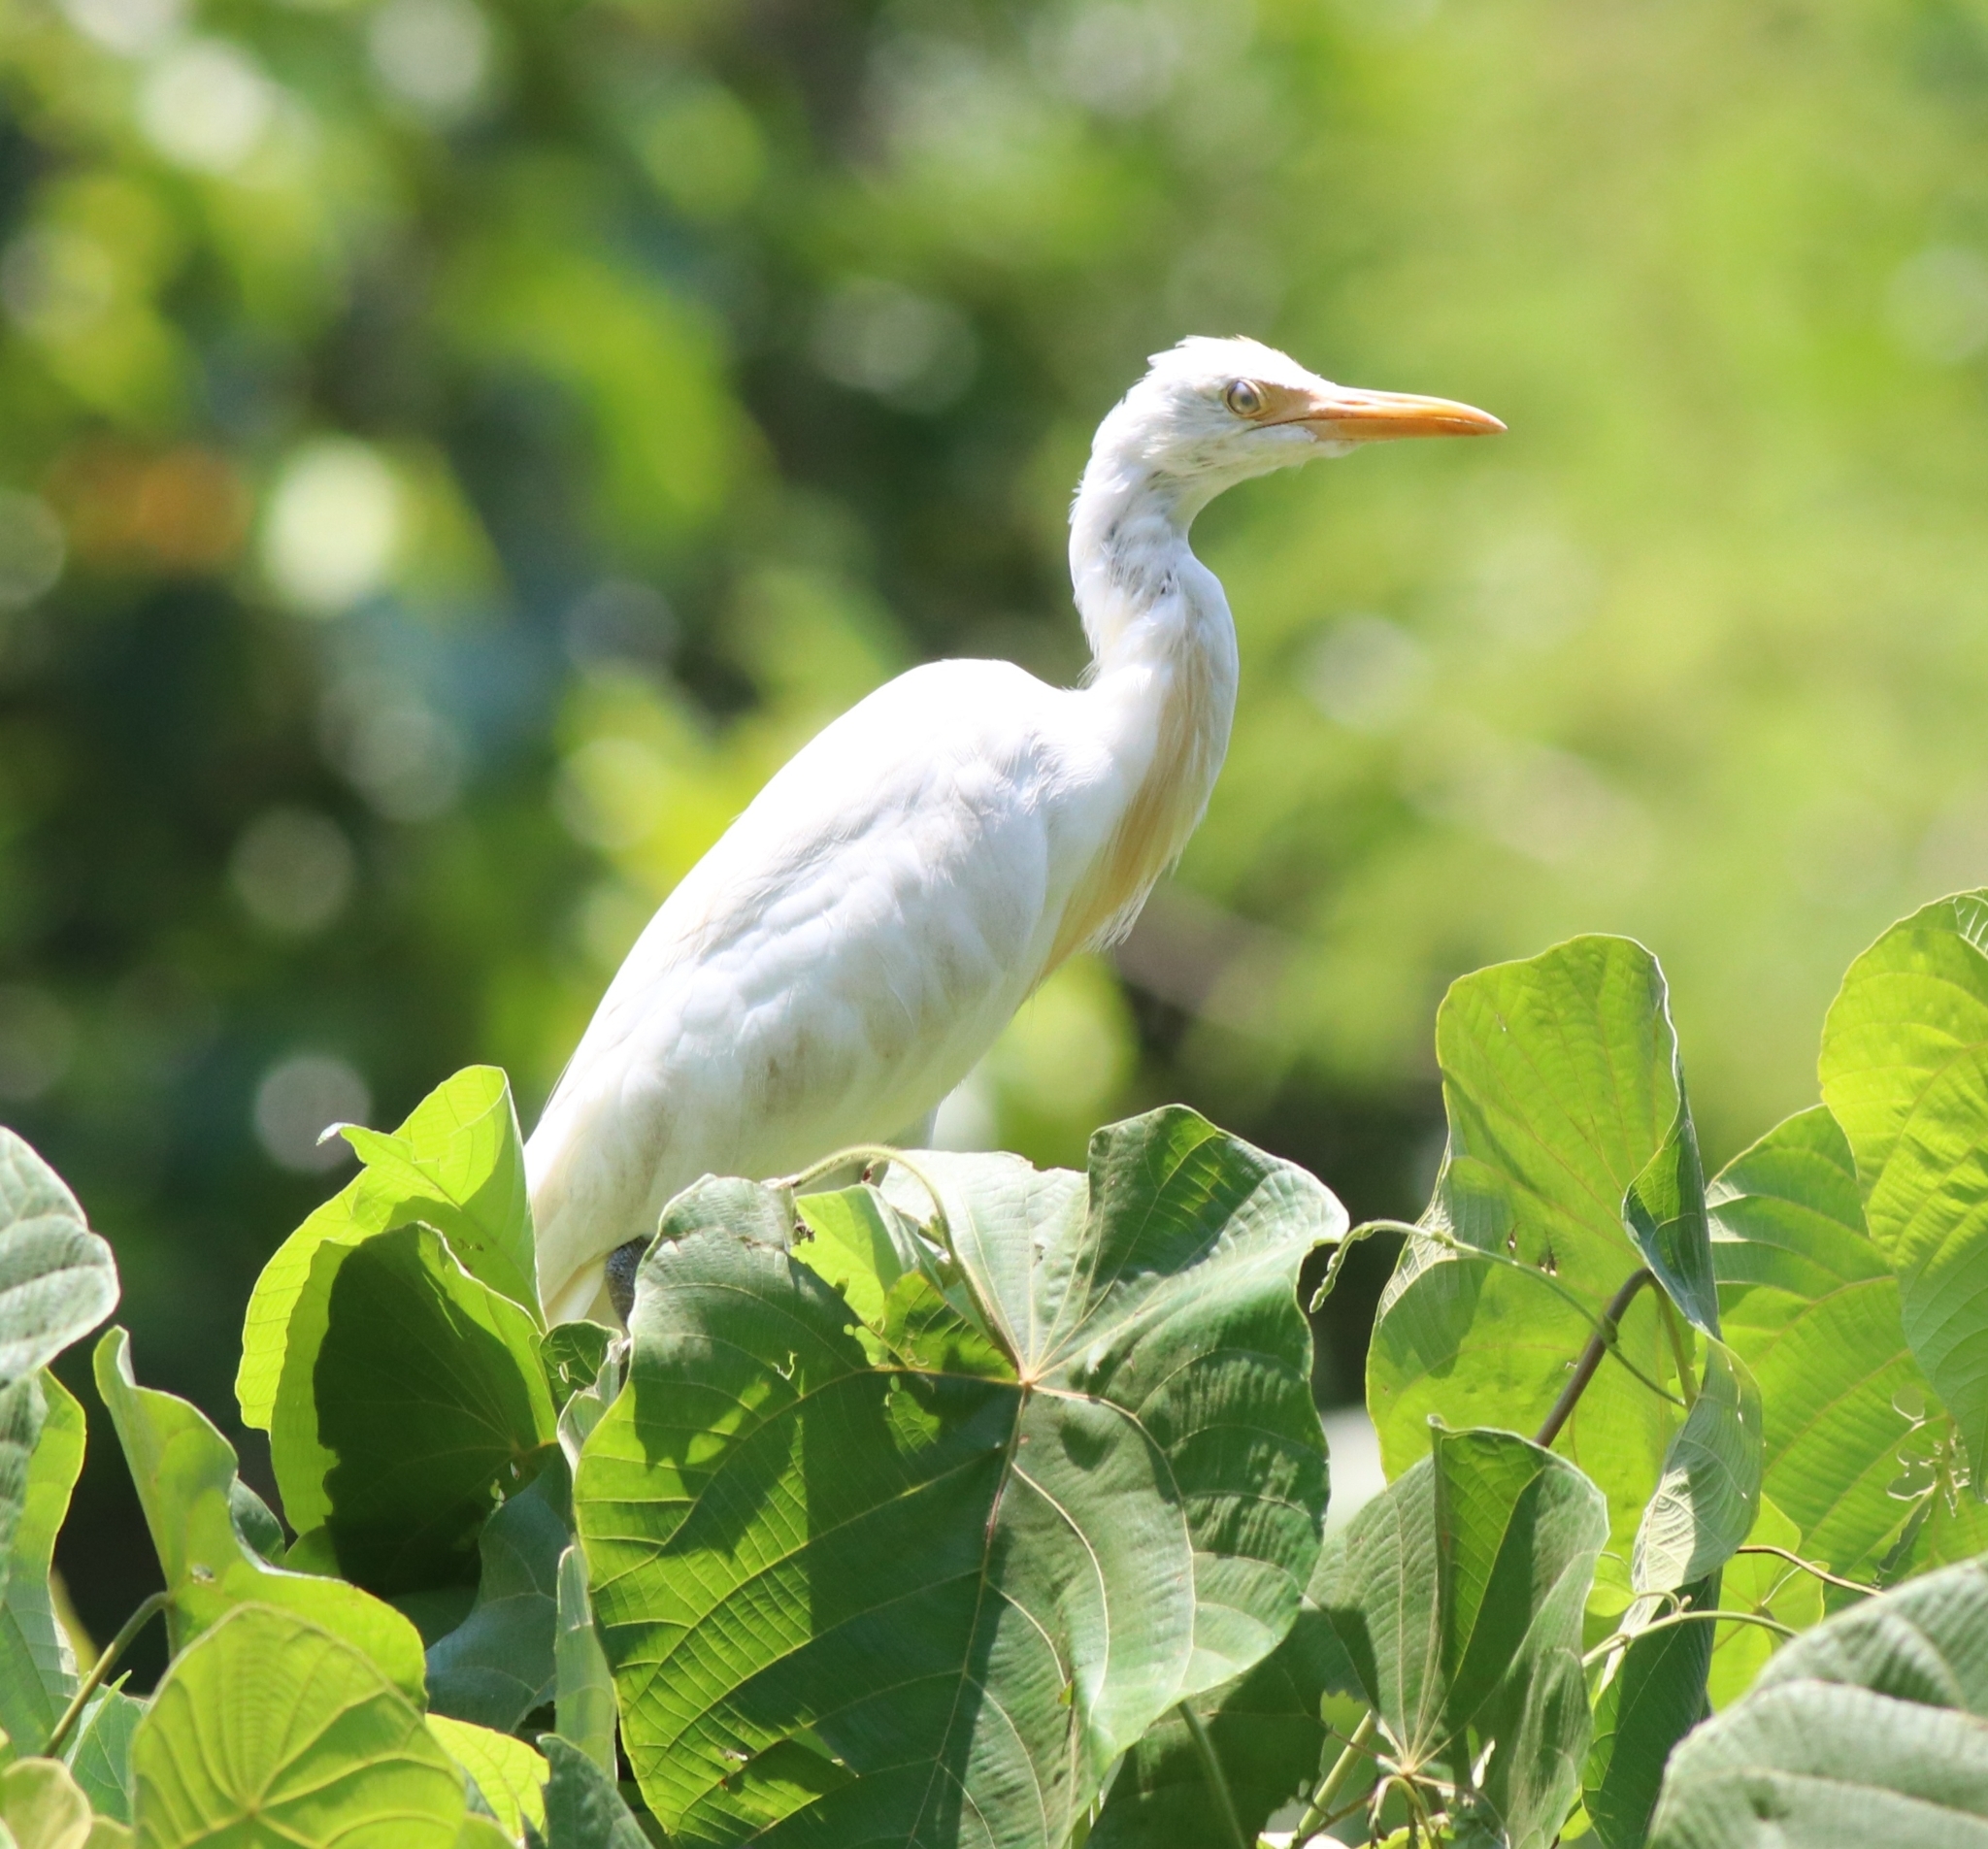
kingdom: Animalia
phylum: Chordata
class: Aves
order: Pelecaniformes
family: Ardeidae
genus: Bubulcus
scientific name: Bubulcus coromandus
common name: Eastern cattle egret
